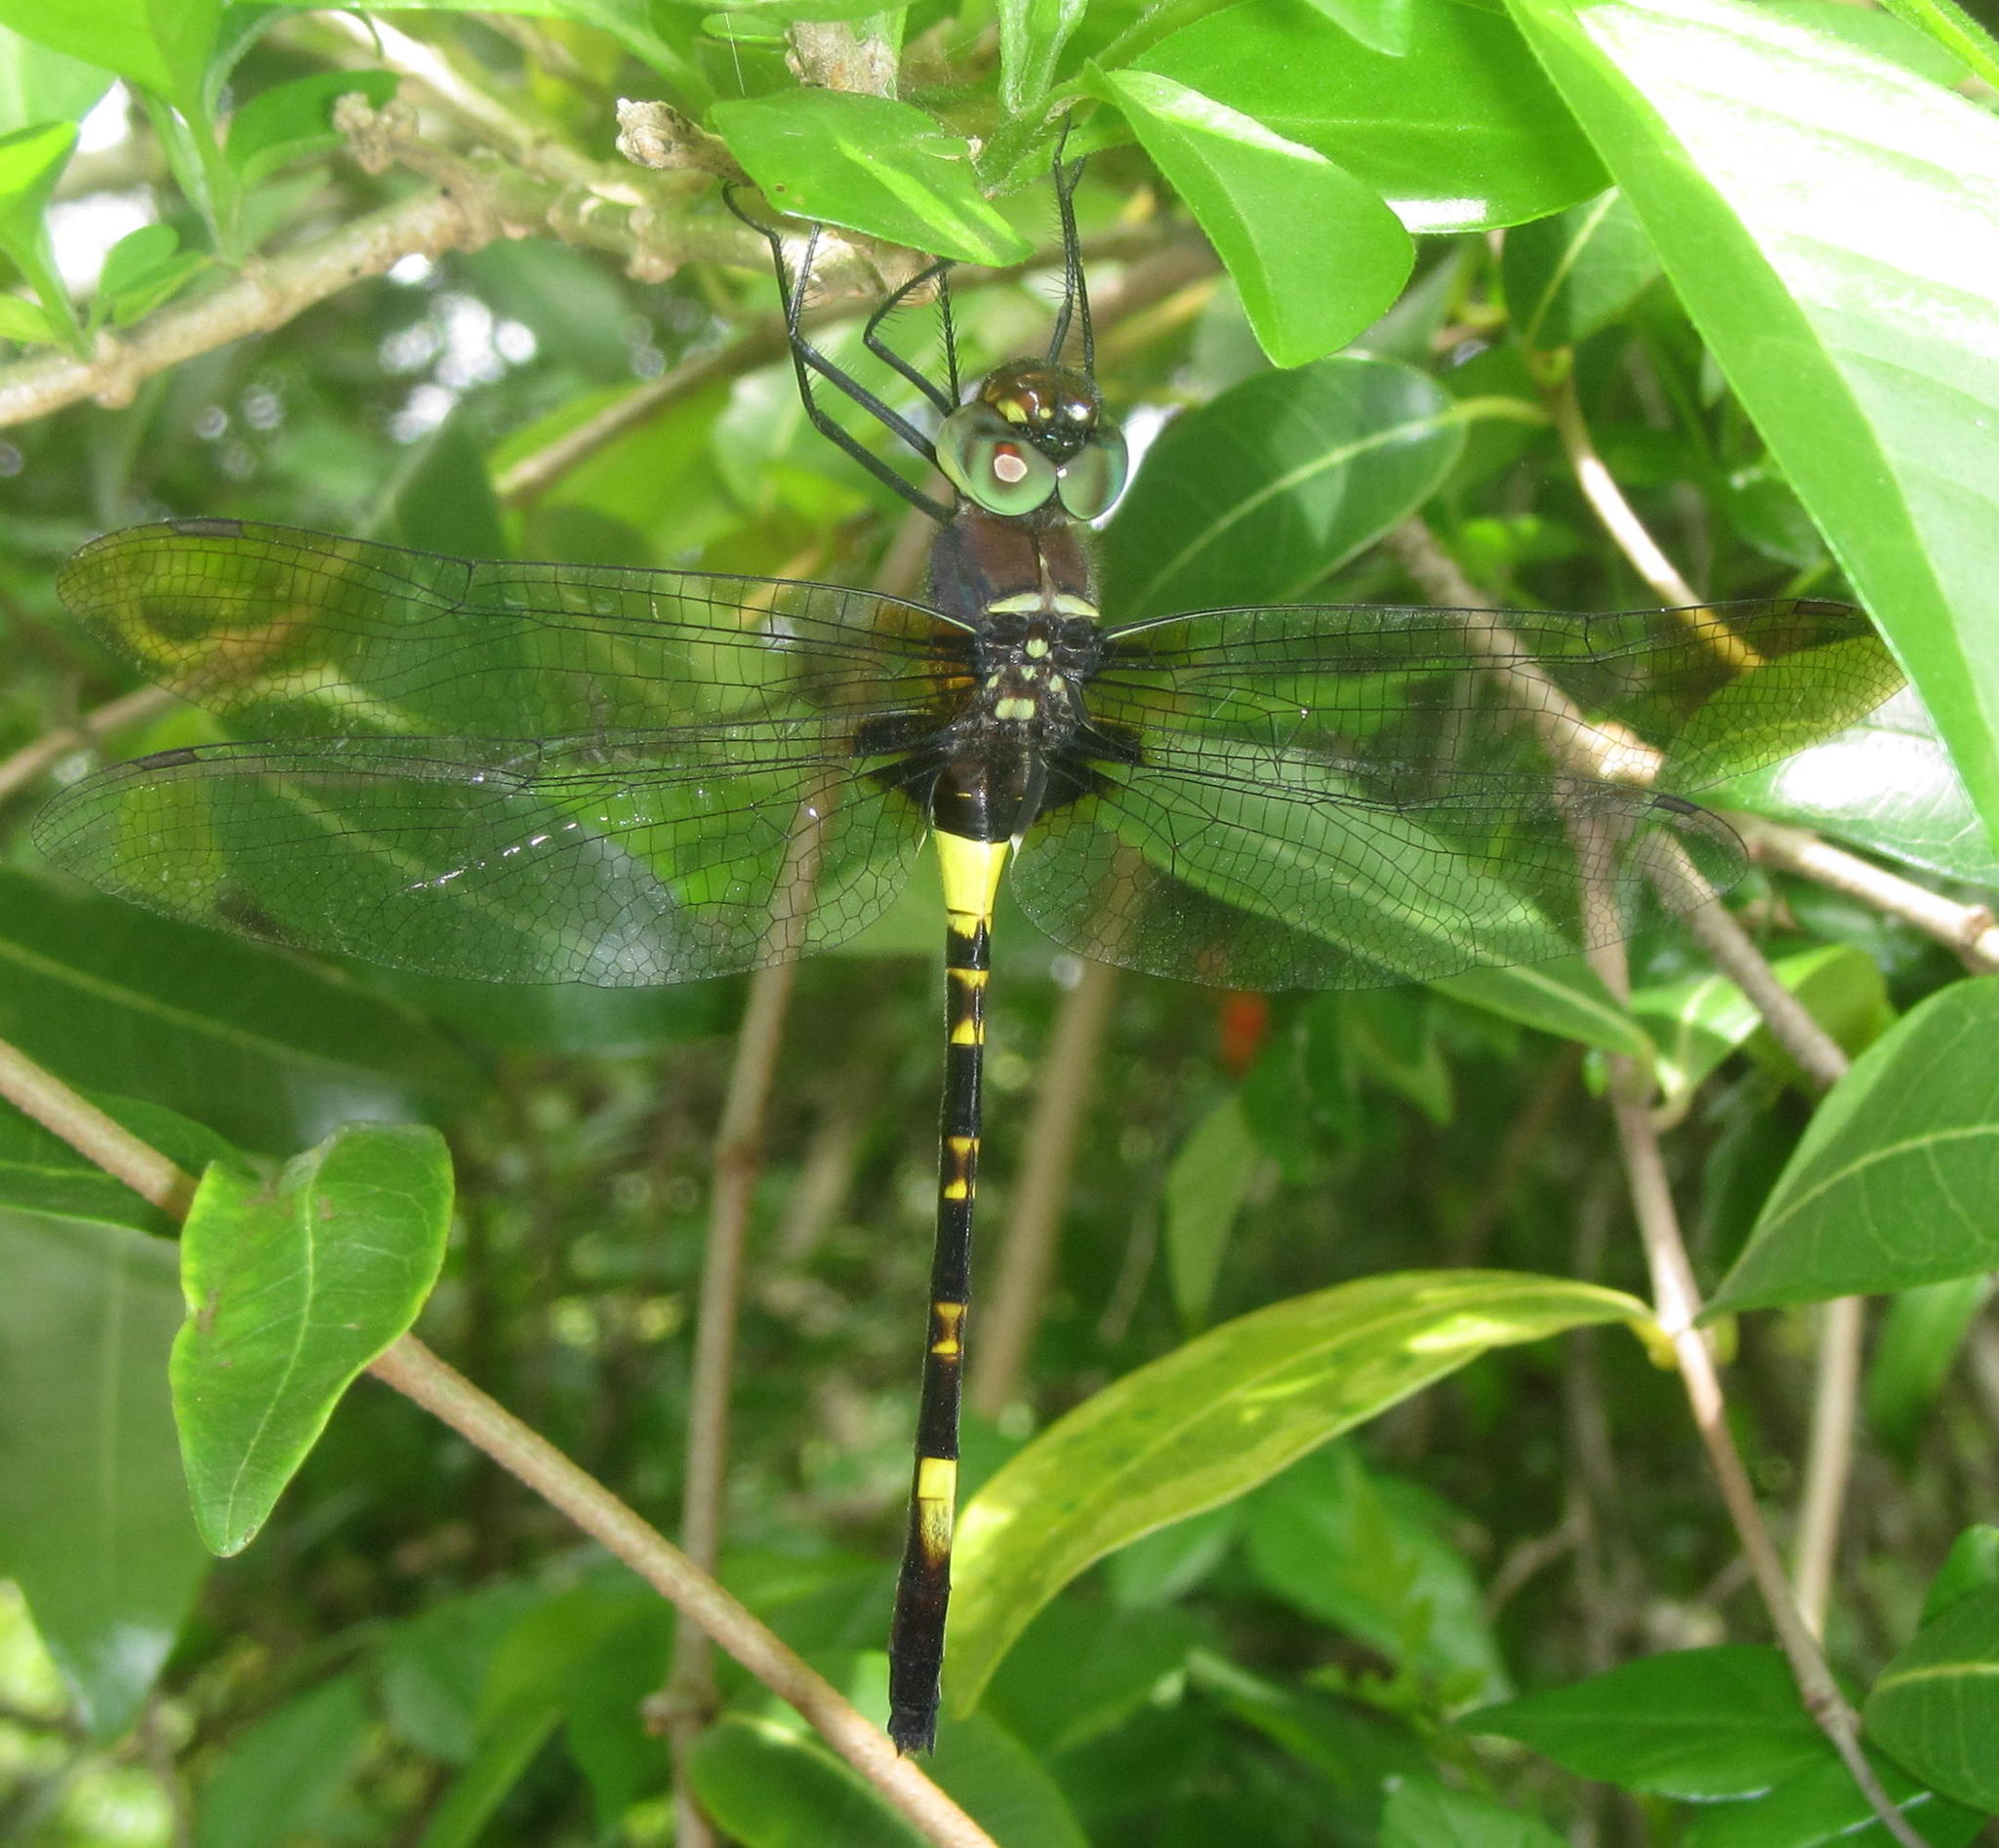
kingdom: Animalia
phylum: Arthropoda
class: Insecta
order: Odonata
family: Macromiidae
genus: Phyllomacromia
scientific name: Phyllomacromia contumax
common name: Two-banded cruiser
